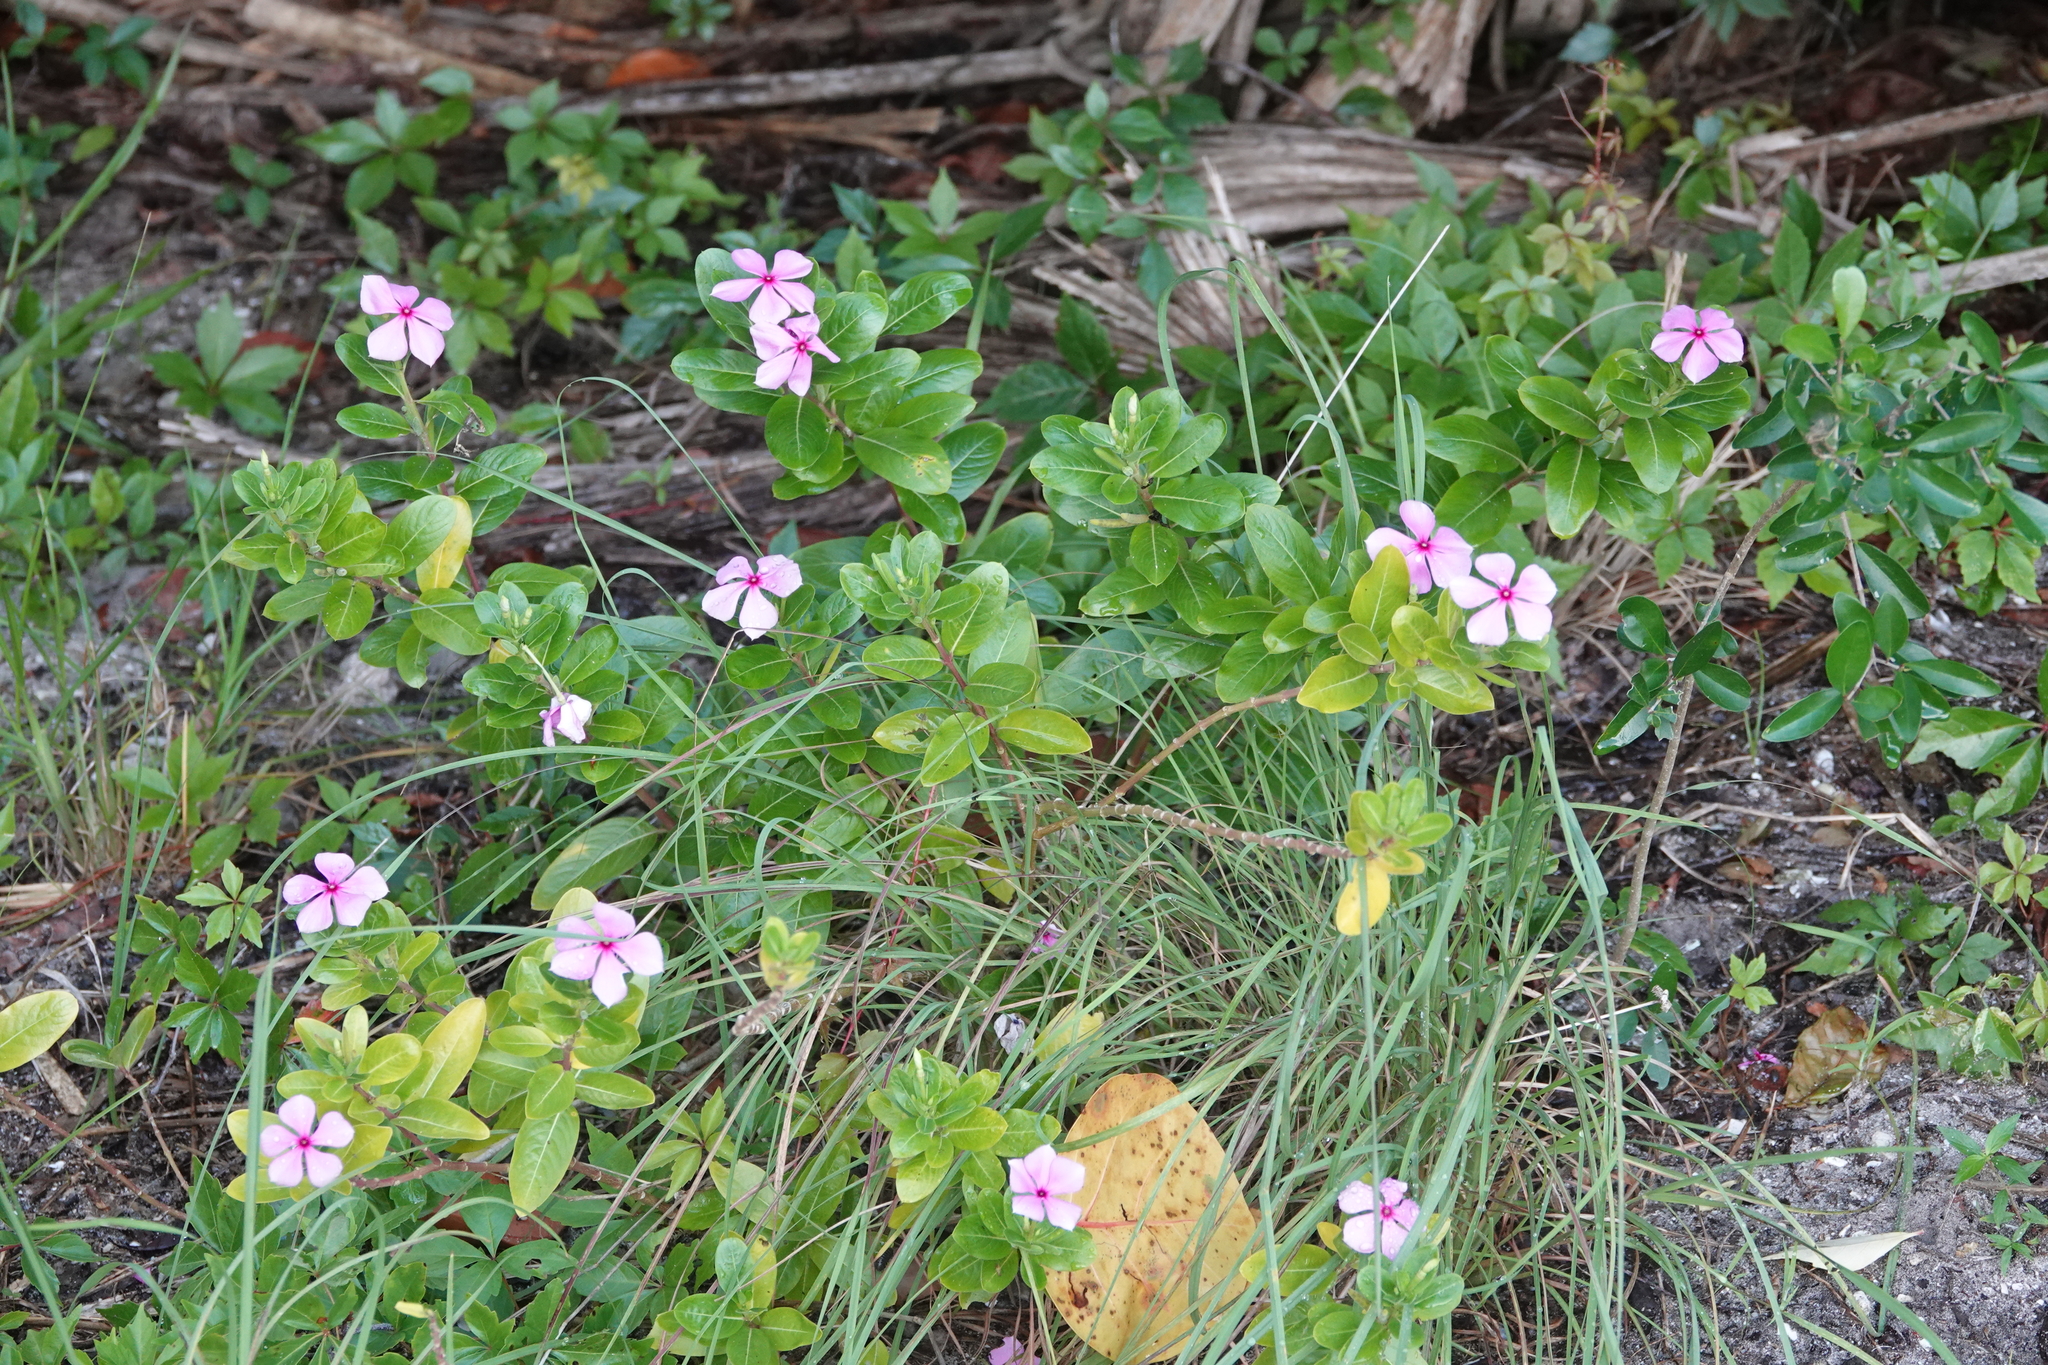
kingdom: Plantae
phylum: Tracheophyta
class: Magnoliopsida
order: Gentianales
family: Apocynaceae
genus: Catharanthus
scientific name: Catharanthus roseus
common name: Madagascar periwinkle
